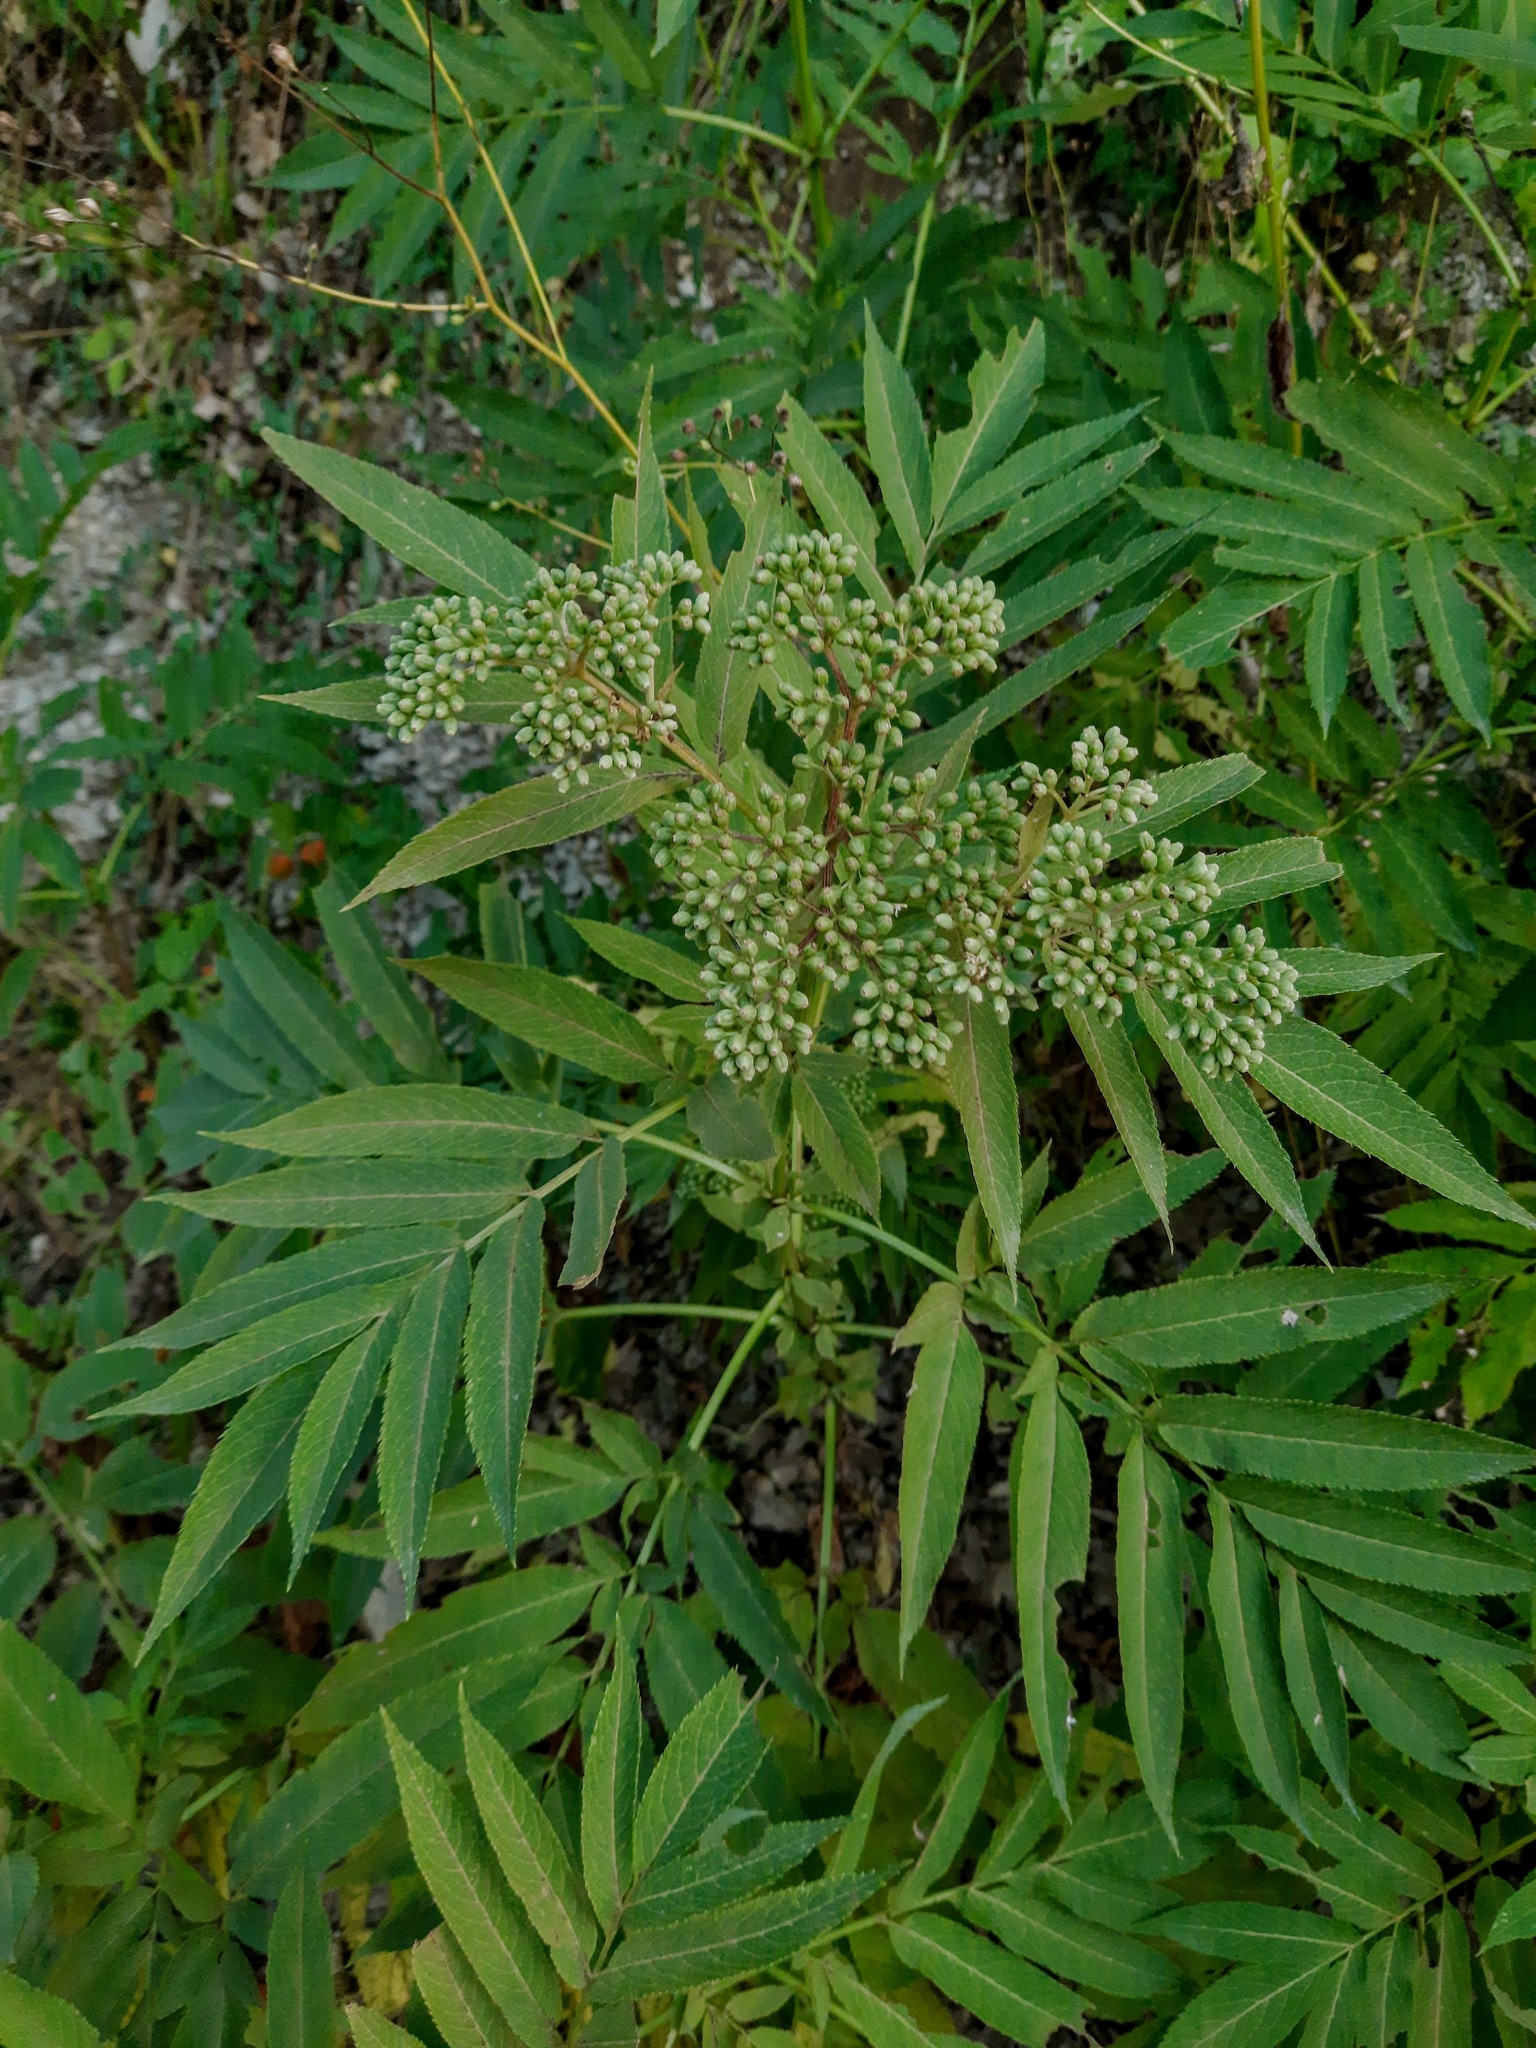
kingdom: Plantae
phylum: Tracheophyta
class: Magnoliopsida
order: Dipsacales
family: Viburnaceae
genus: Sambucus
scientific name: Sambucus ebulus
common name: Dwarf elder
